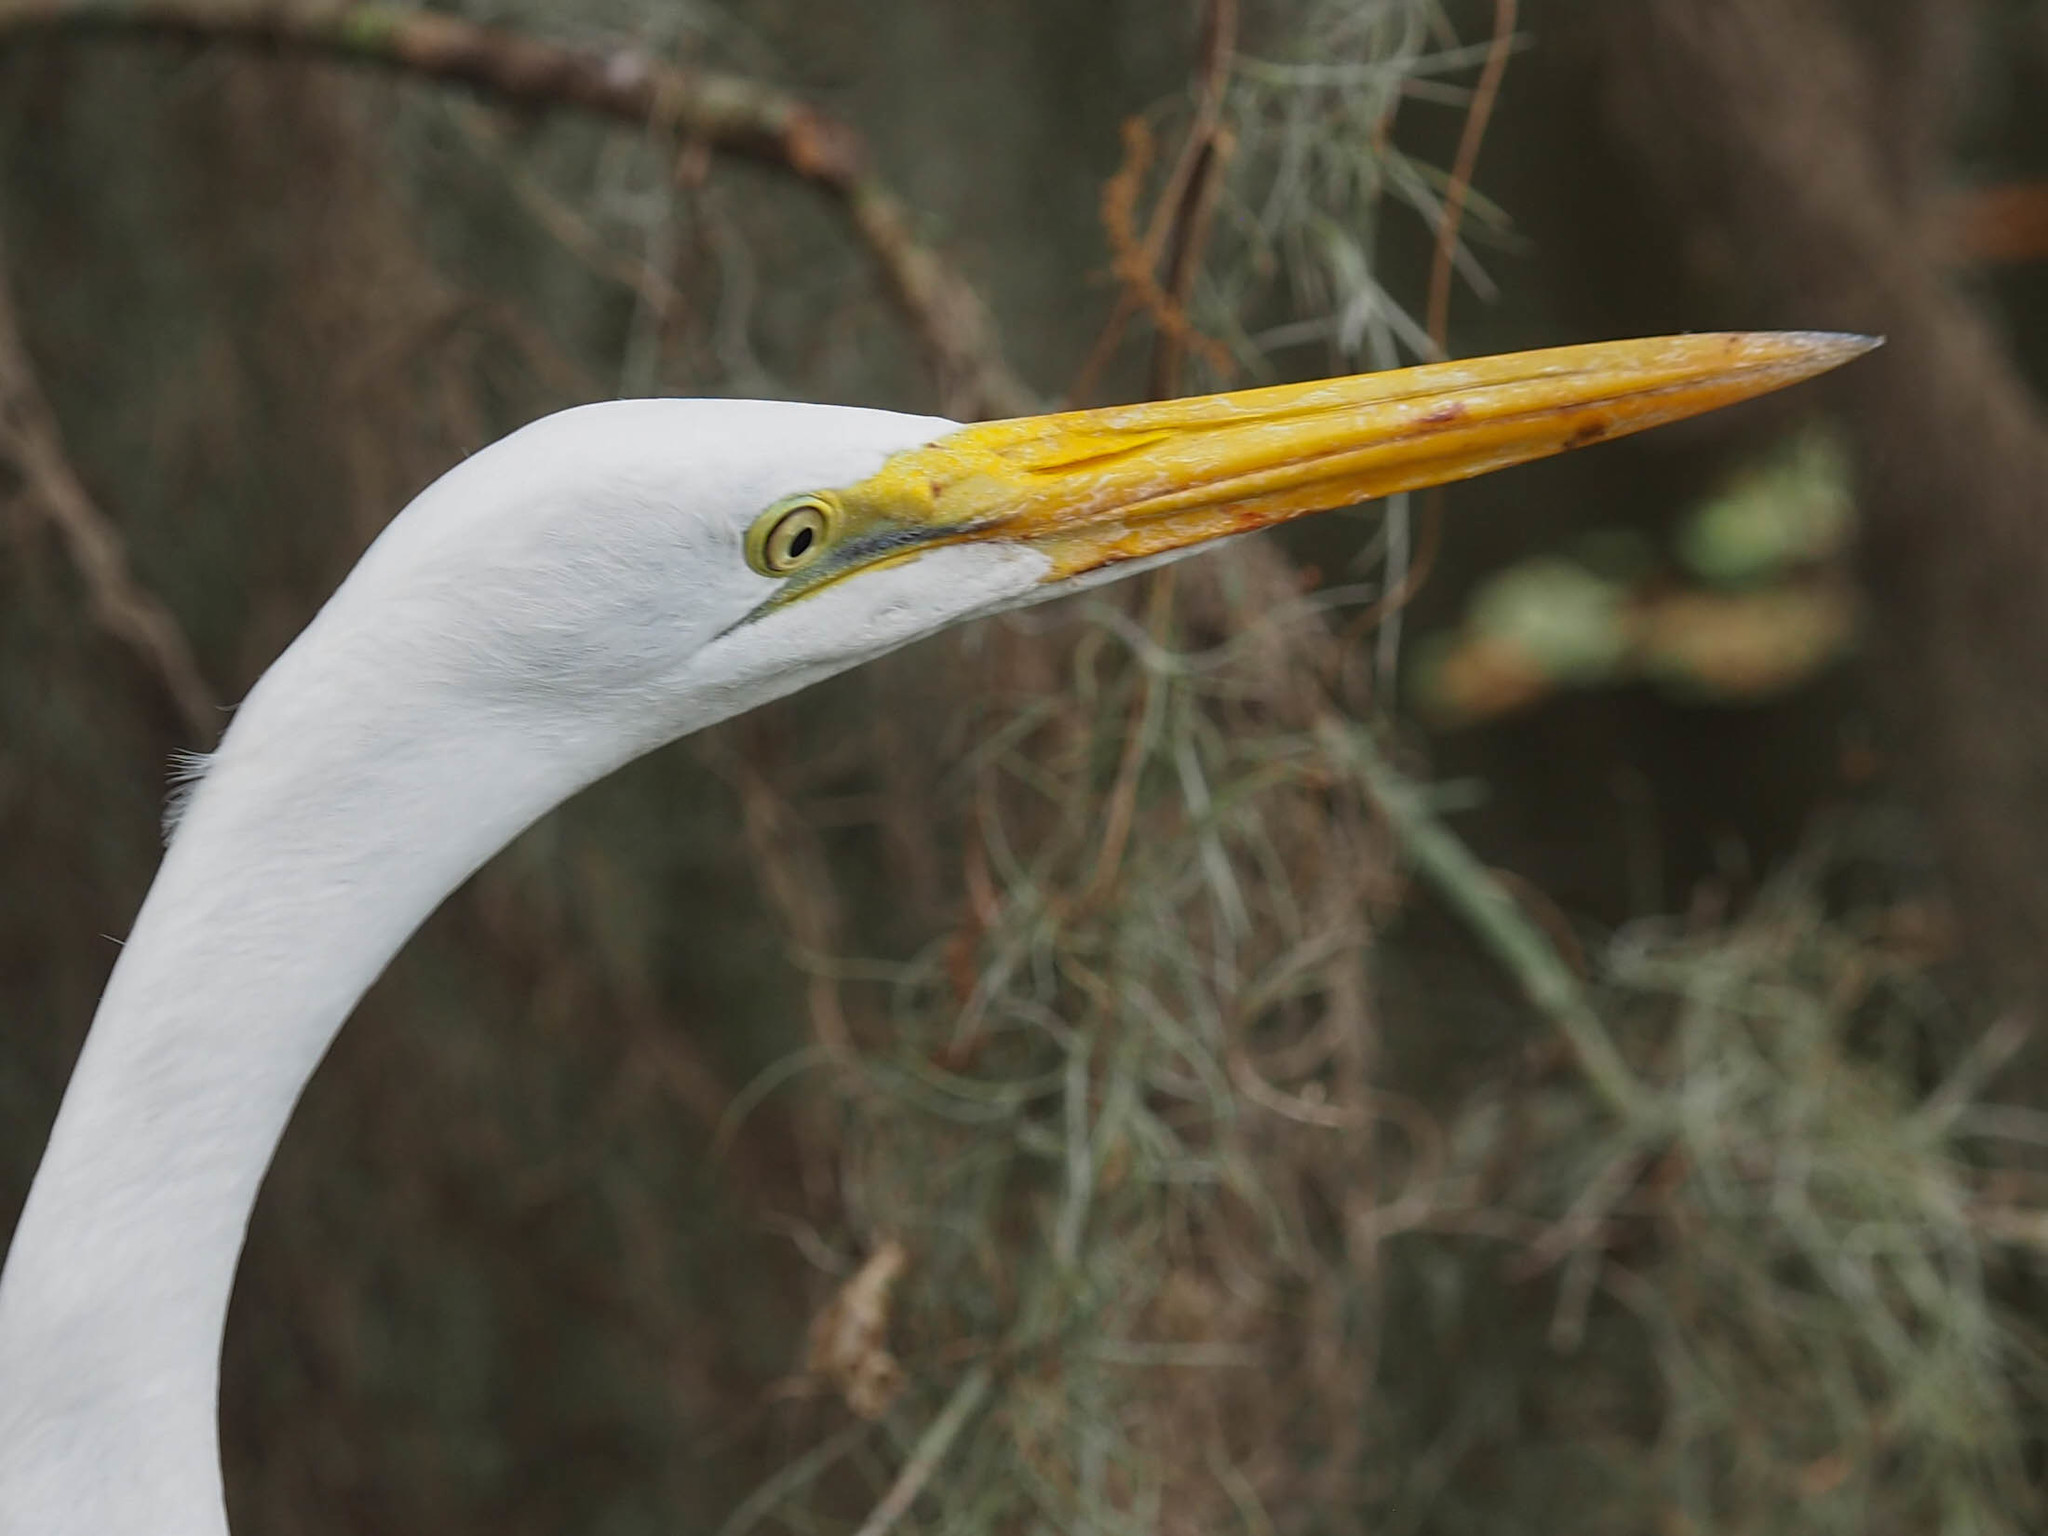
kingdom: Animalia
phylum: Chordata
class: Aves
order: Pelecaniformes
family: Ardeidae
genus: Ardea
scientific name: Ardea alba
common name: Great egret
